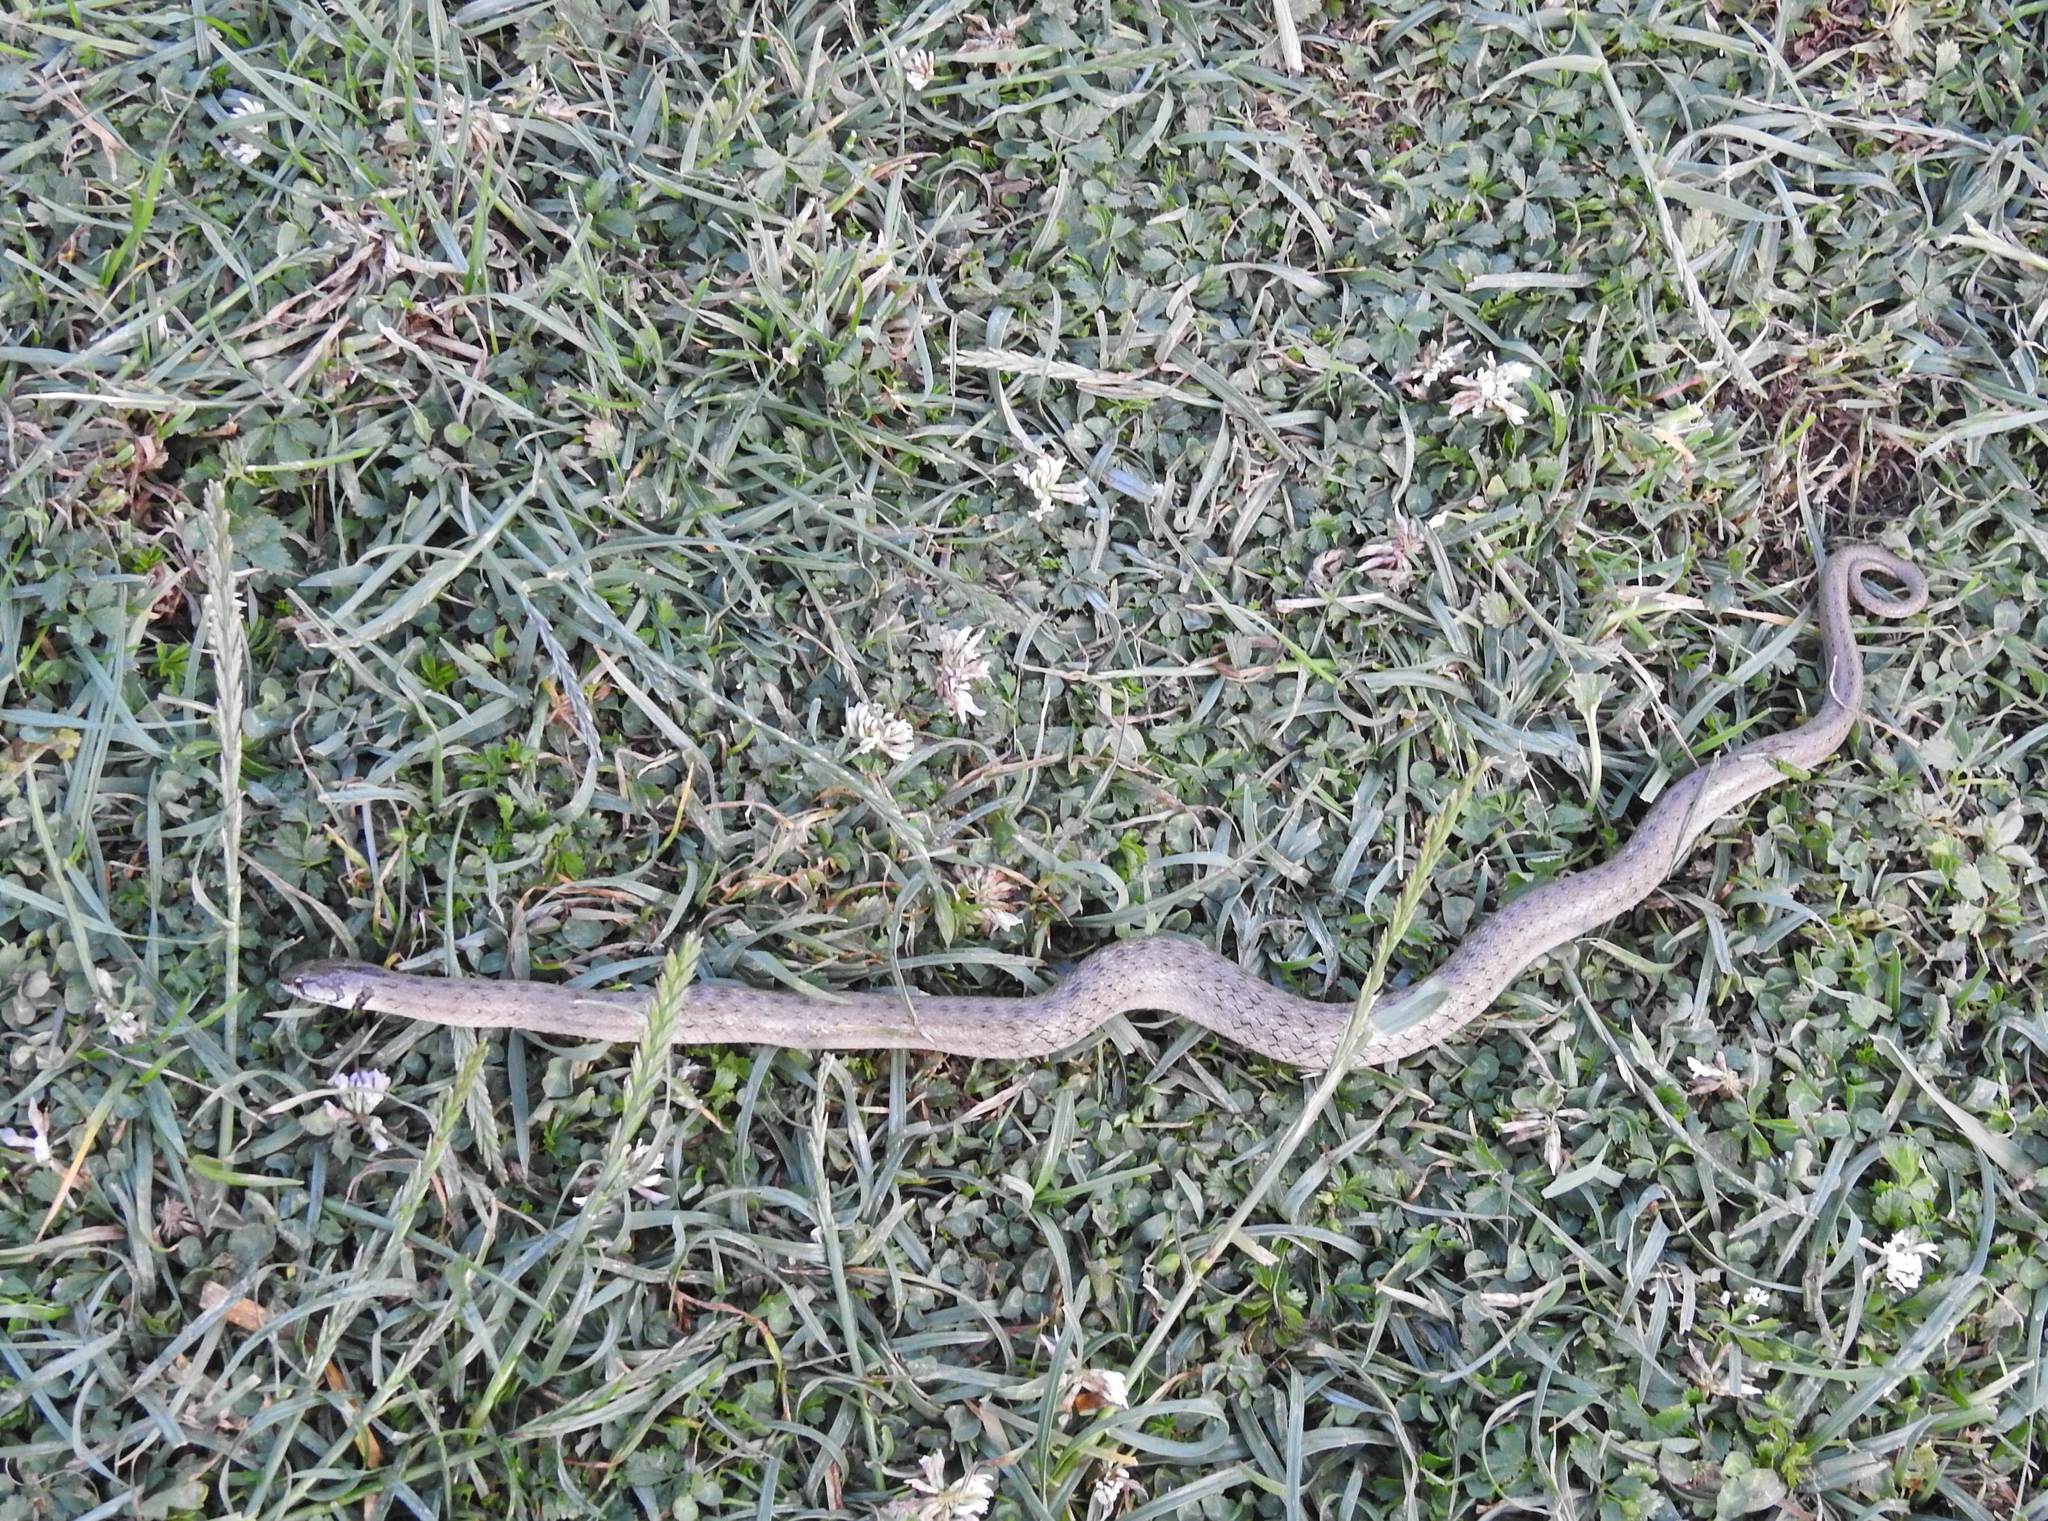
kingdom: Animalia
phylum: Chordata
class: Squamata
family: Colubridae
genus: Macroprotodon
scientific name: Macroprotodon mauritanicus
